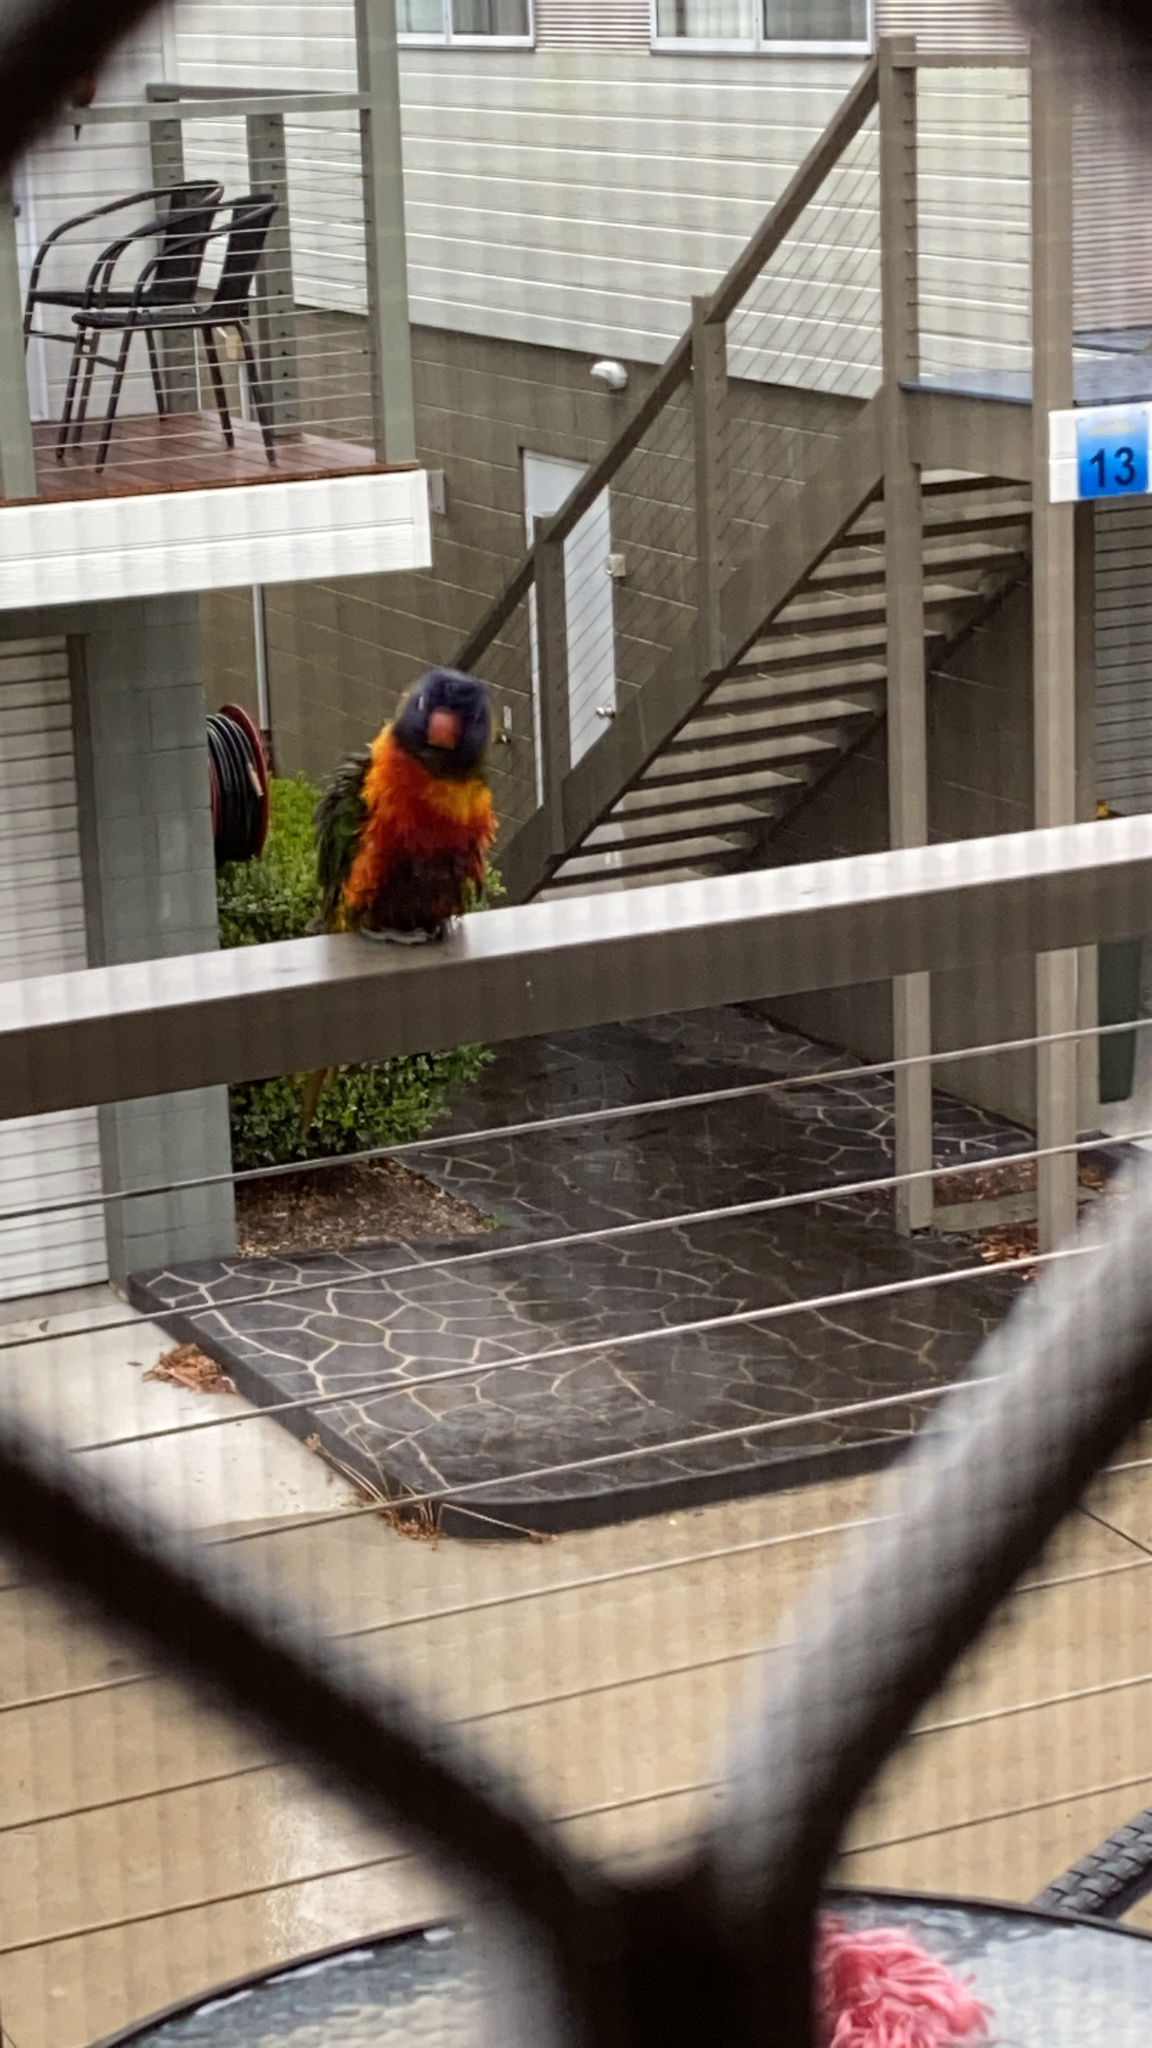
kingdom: Animalia
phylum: Chordata
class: Aves
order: Psittaciformes
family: Psittacidae
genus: Trichoglossus
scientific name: Trichoglossus haematodus
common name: Coconut lorikeet
